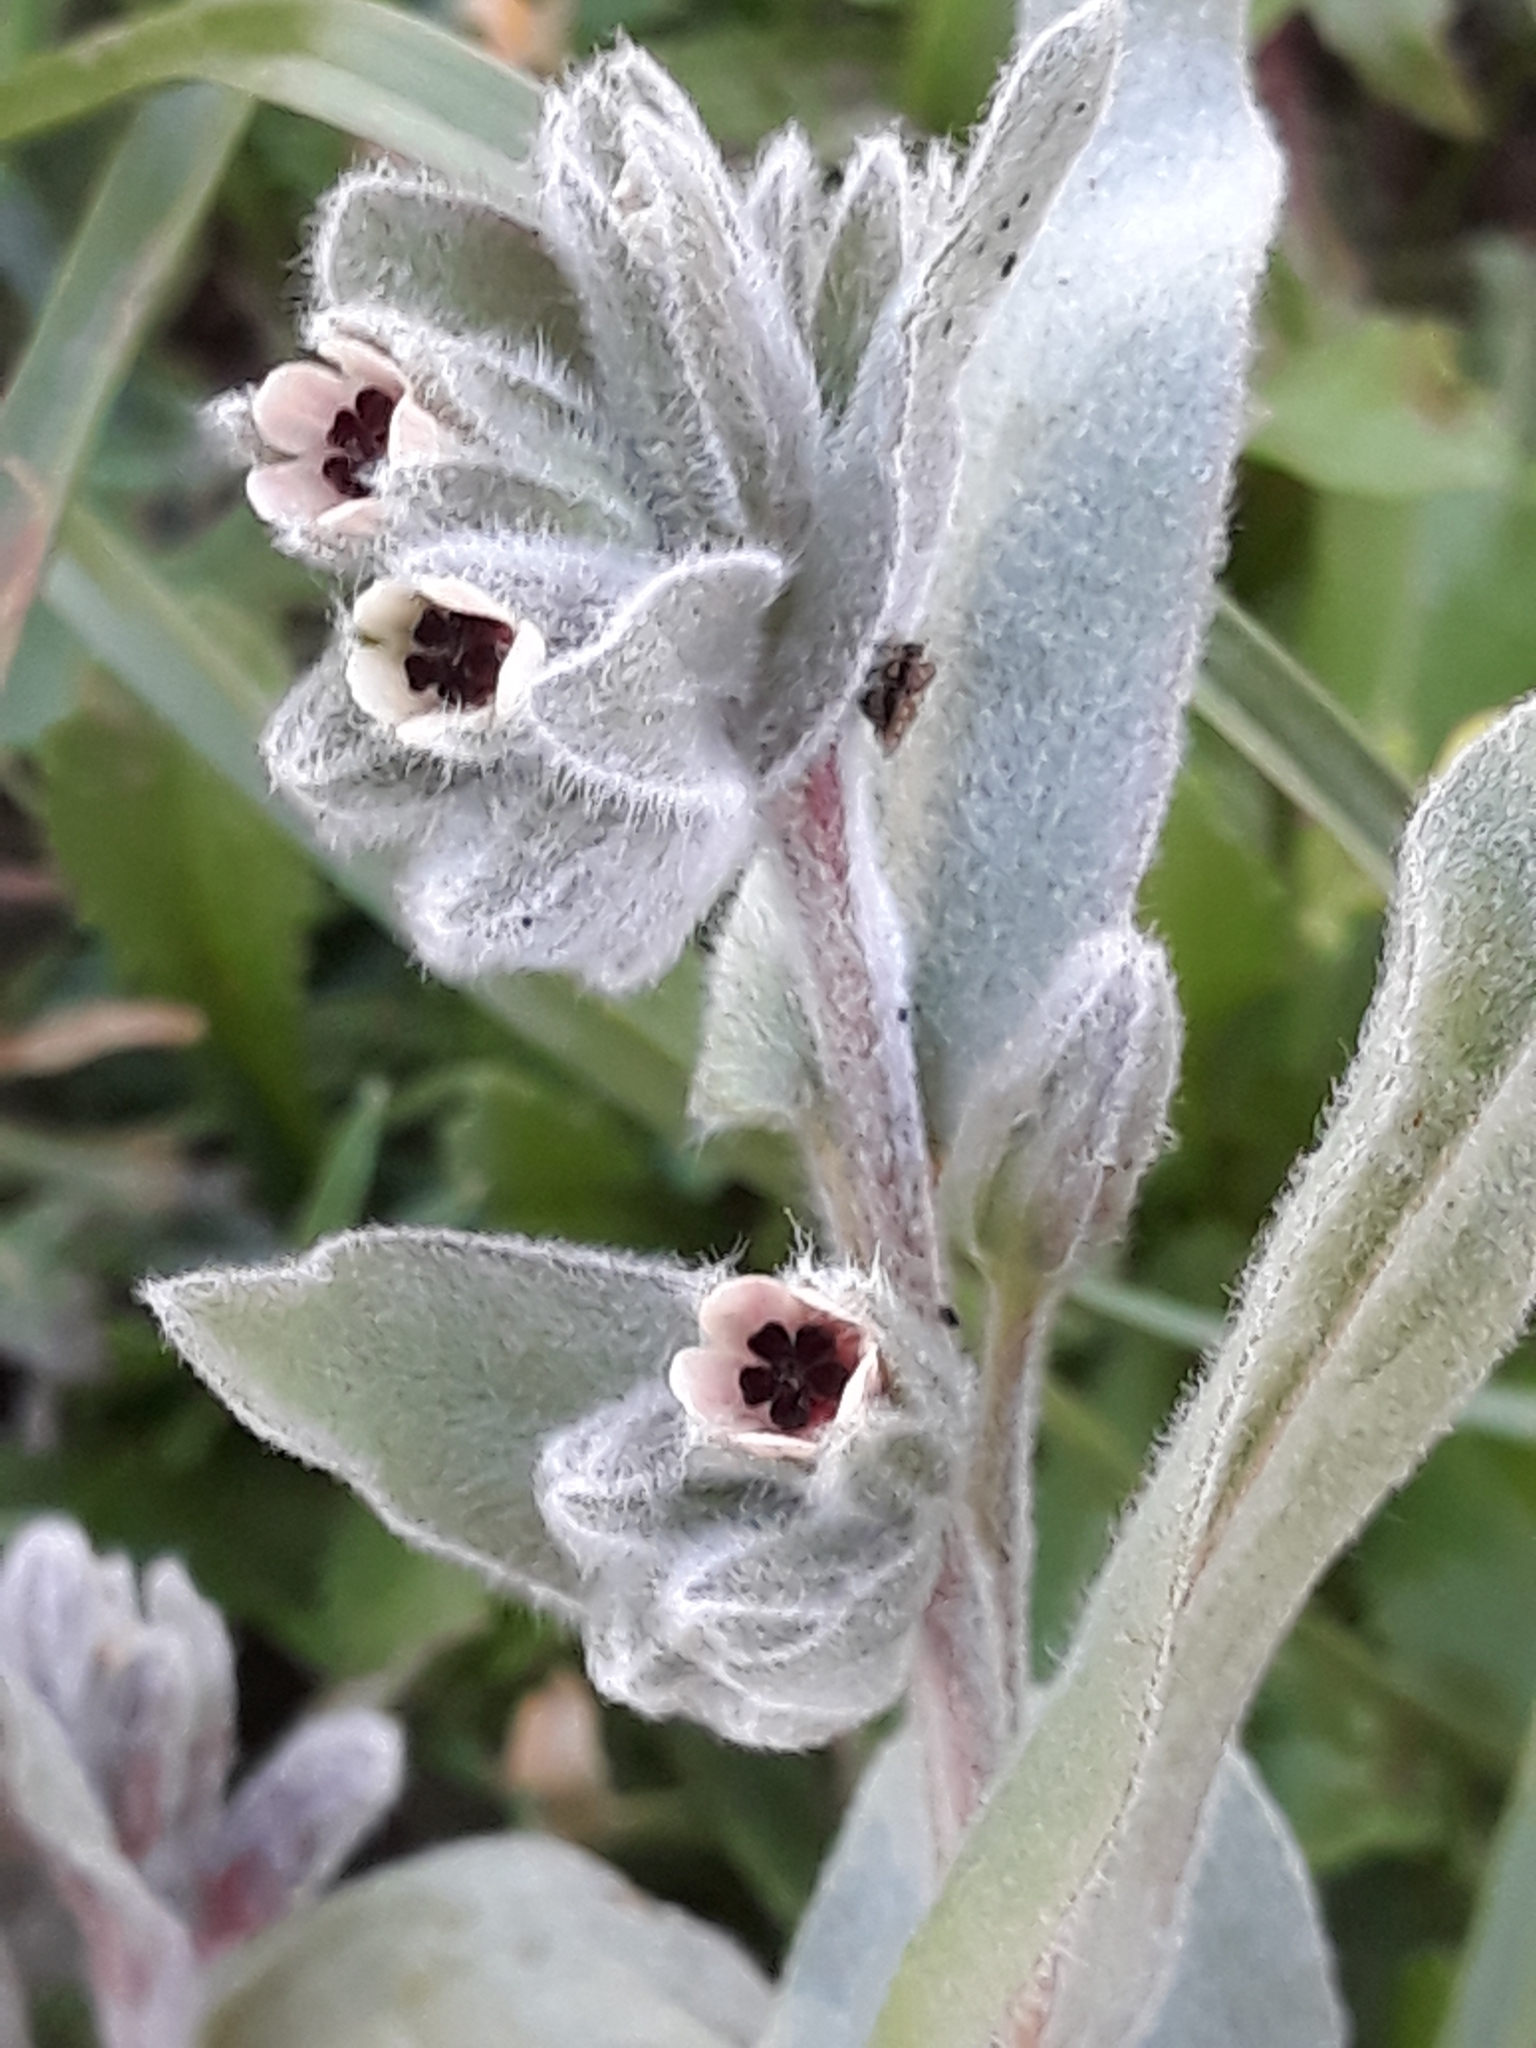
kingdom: Plantae
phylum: Tracheophyta
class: Magnoliopsida
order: Boraginales
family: Boraginaceae
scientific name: Boraginaceae
